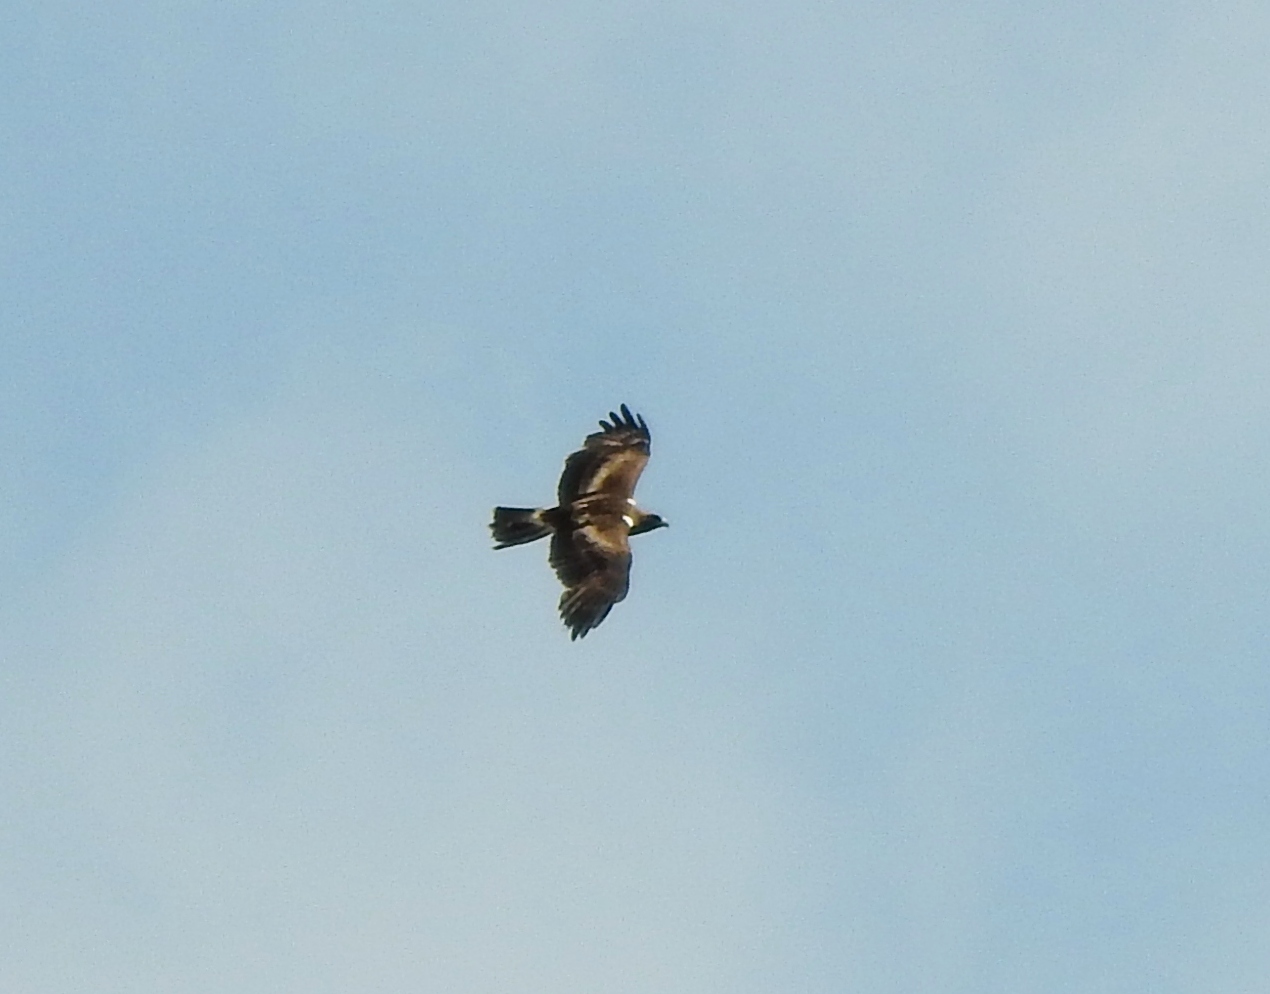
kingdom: Animalia
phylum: Chordata
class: Aves
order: Accipitriformes
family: Accipitridae
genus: Hieraaetus
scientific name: Hieraaetus pennatus
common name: Booted eagle
